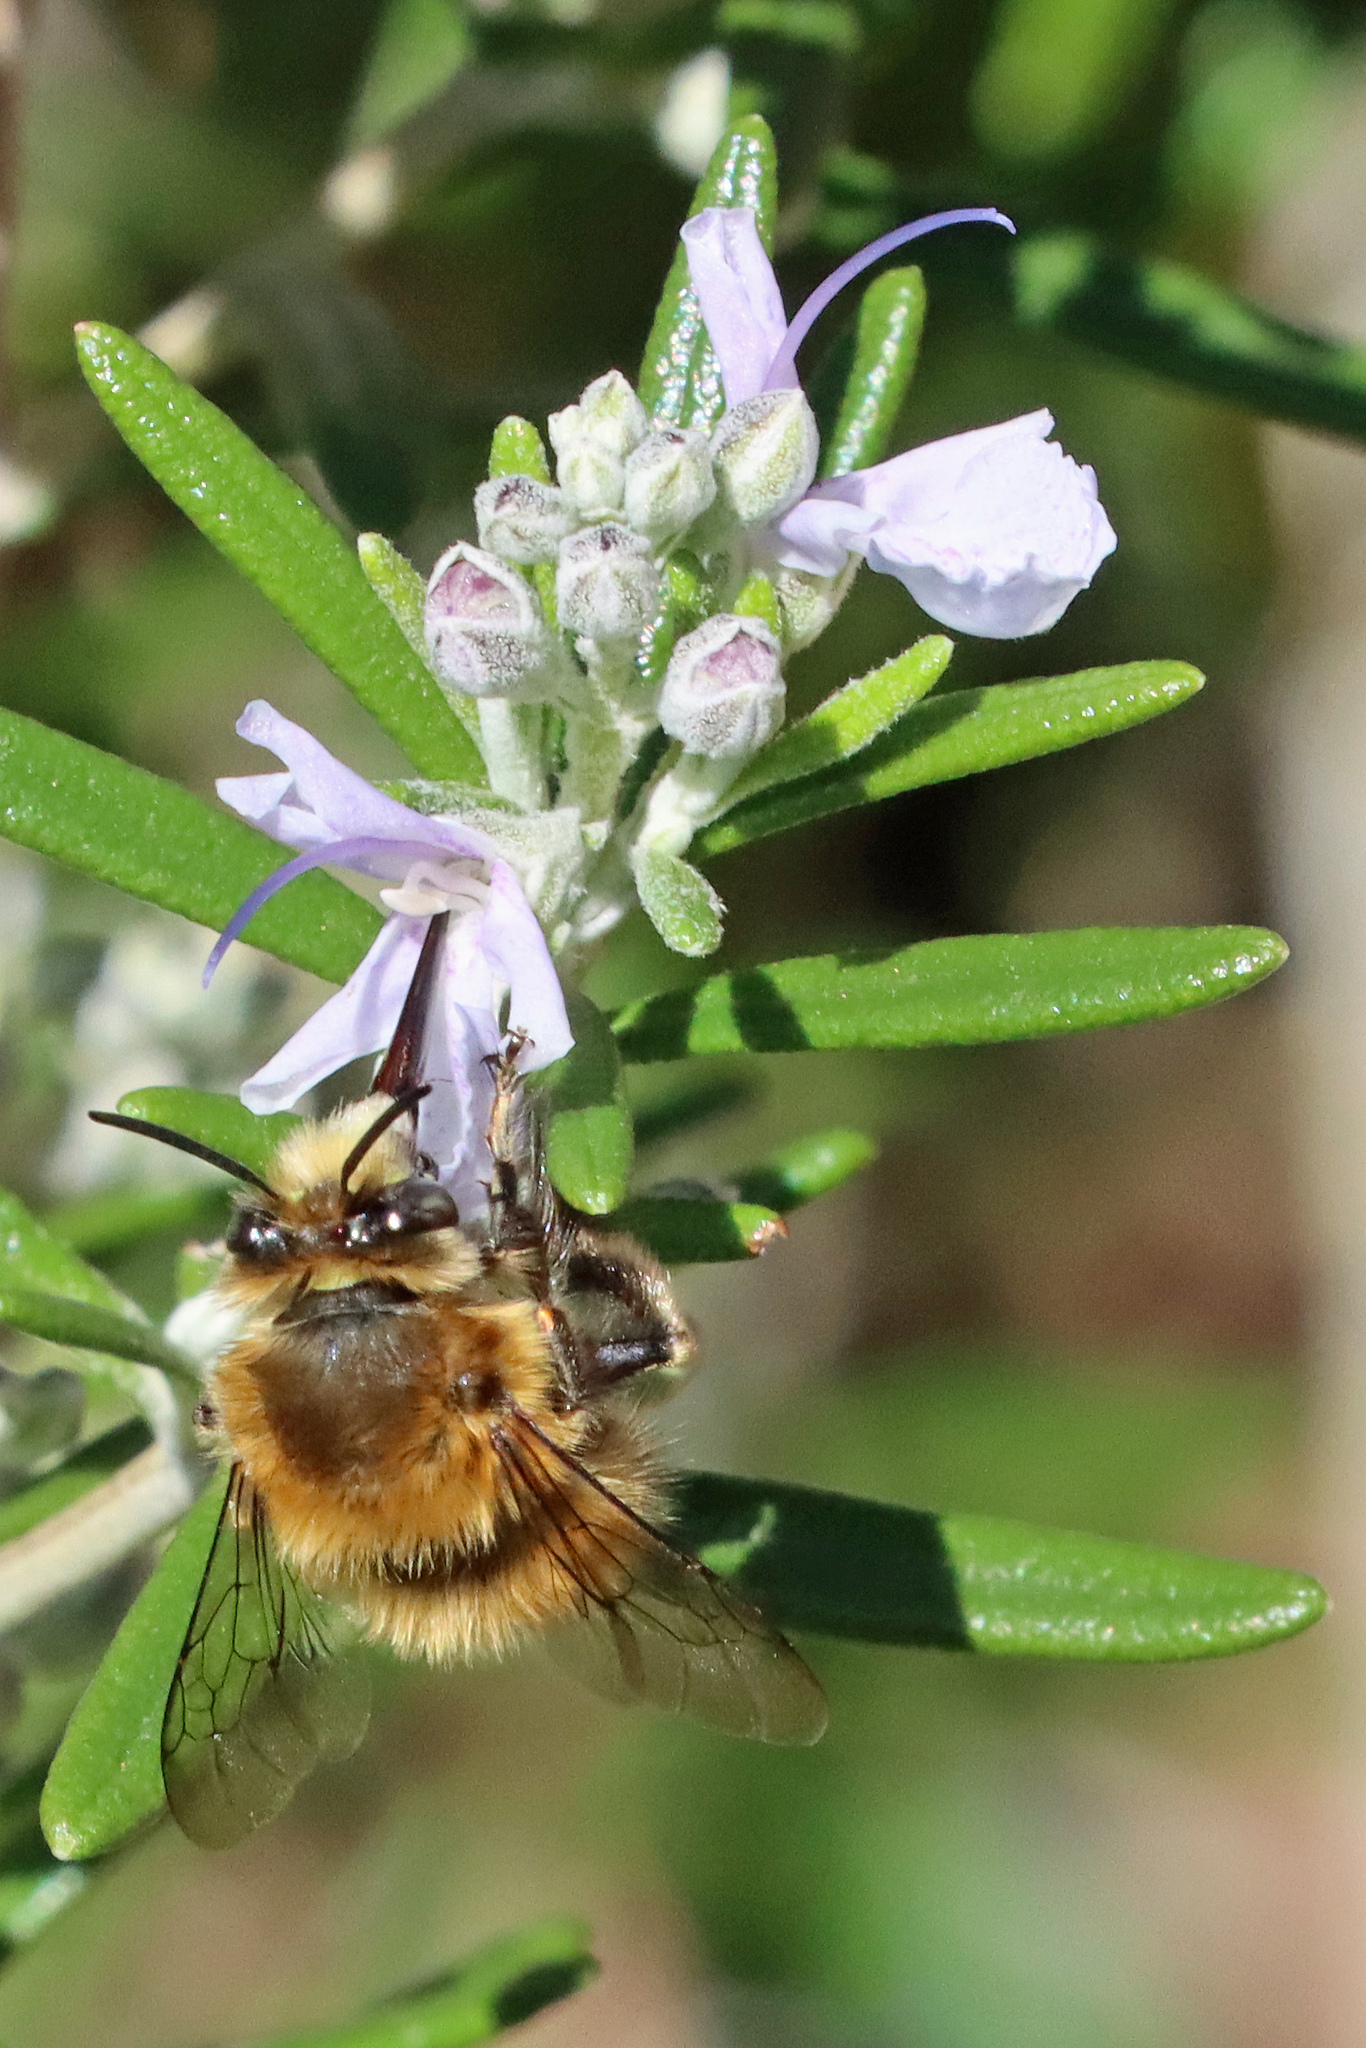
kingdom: Animalia
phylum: Arthropoda
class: Insecta
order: Hymenoptera
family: Apidae
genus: Anthophora
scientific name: Anthophora plumipes
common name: Hairy-footed flower bee
